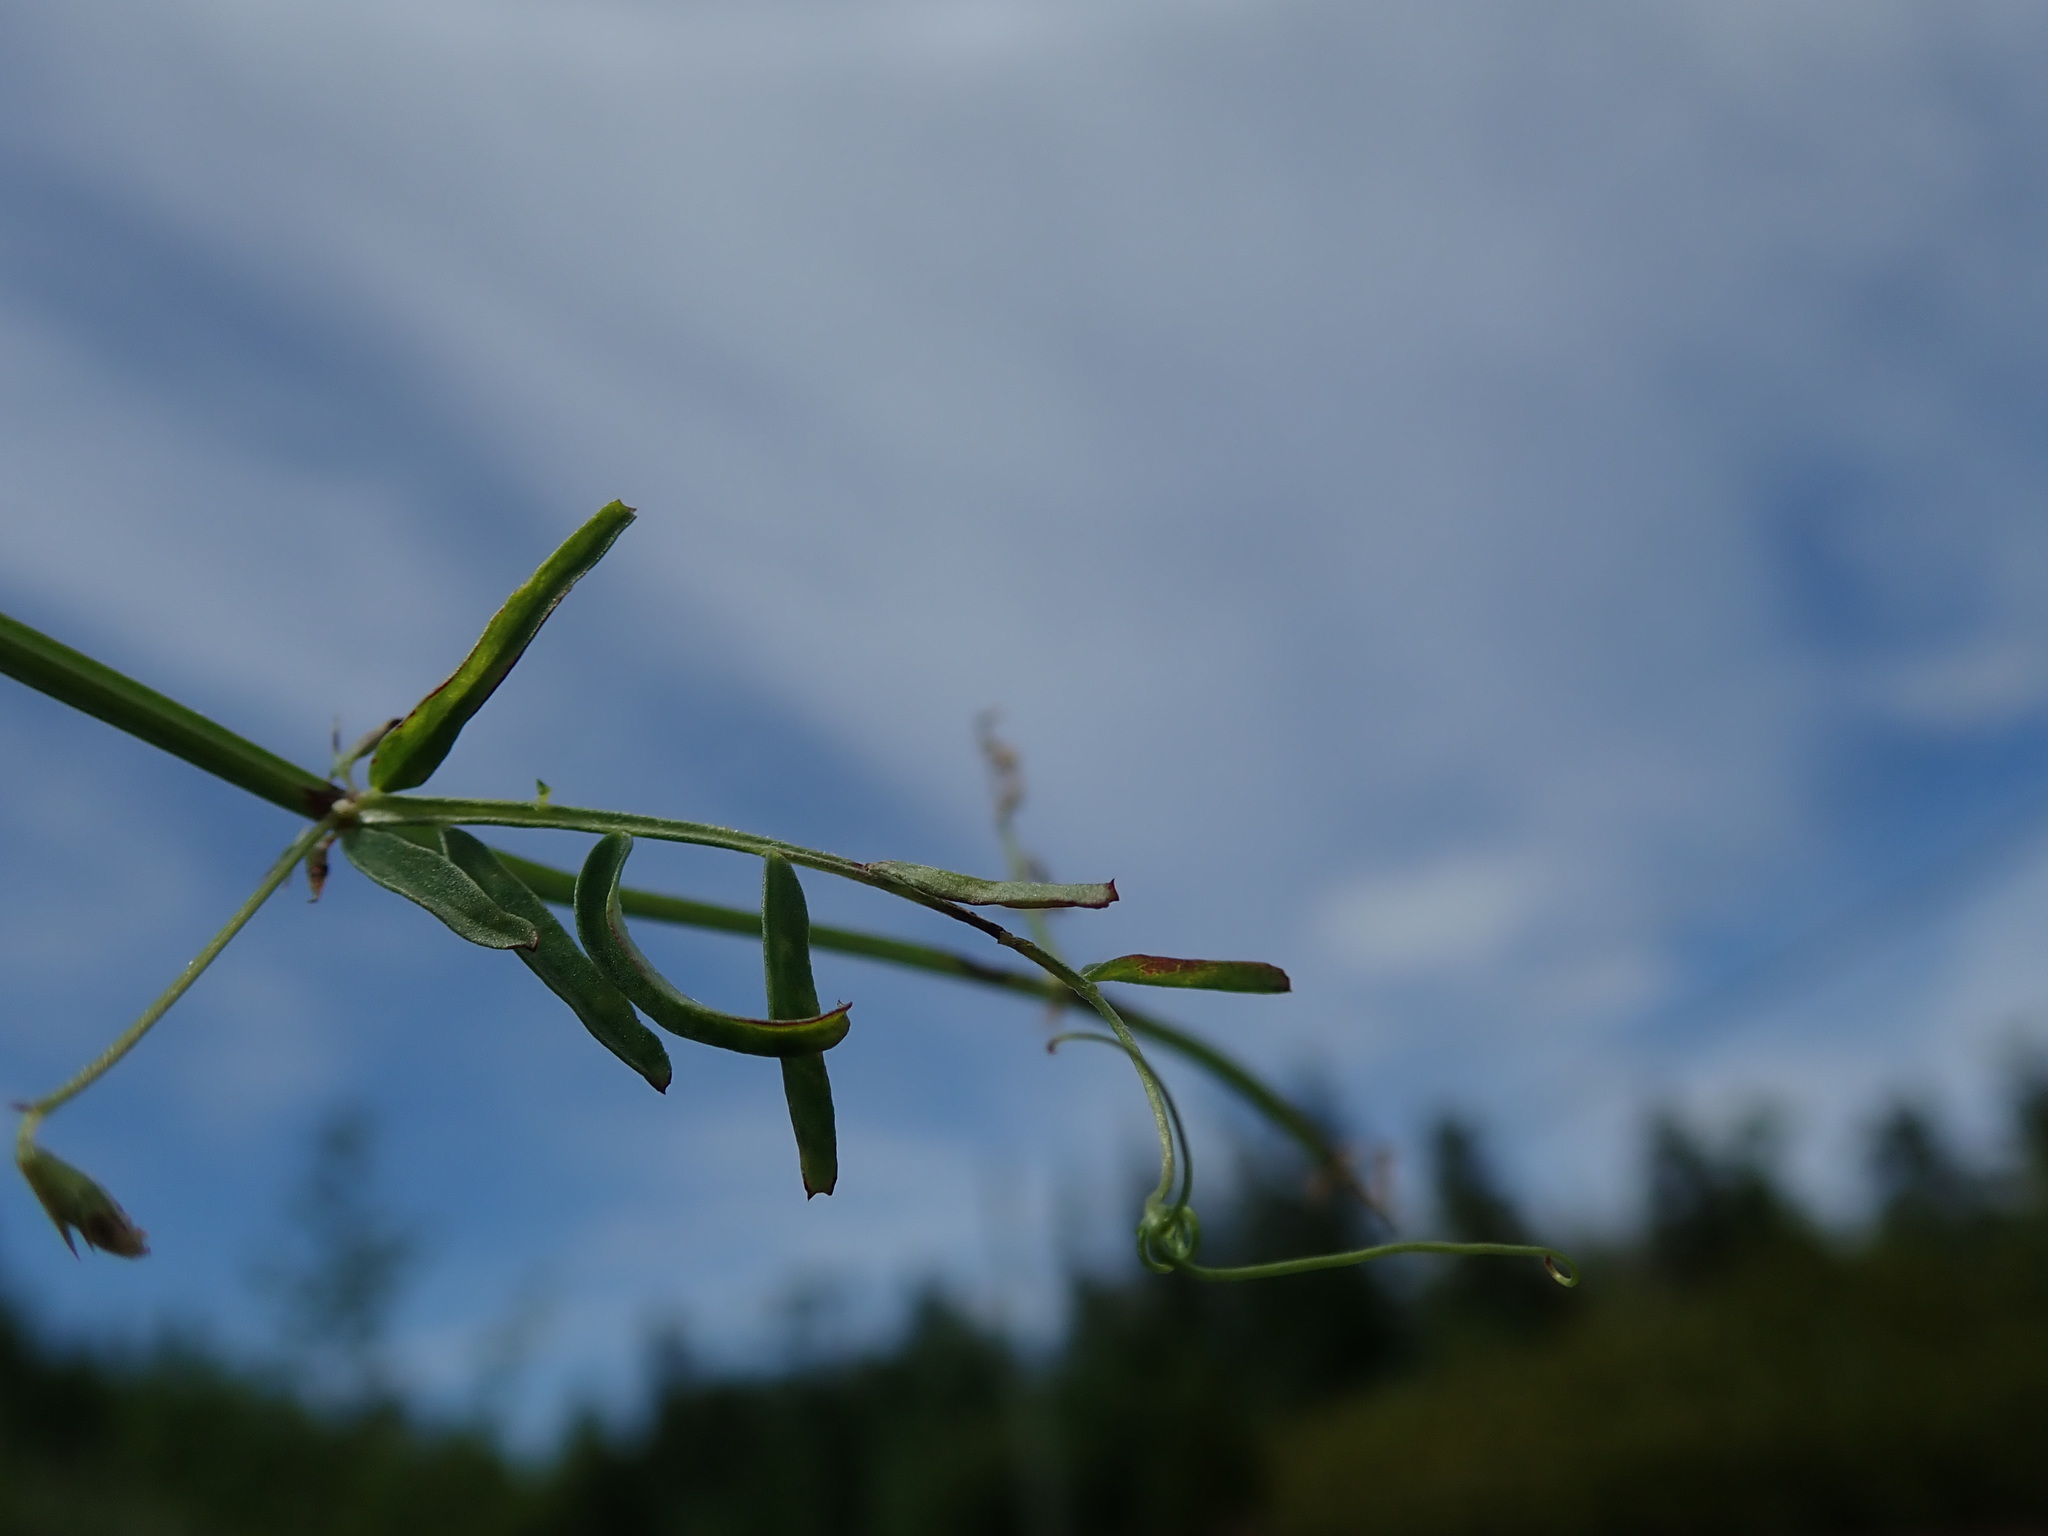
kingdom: Plantae
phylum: Tracheophyta
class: Magnoliopsida
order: Fabales
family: Fabaceae
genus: Vicia
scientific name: Vicia hirsuta
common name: Tiny vetch
